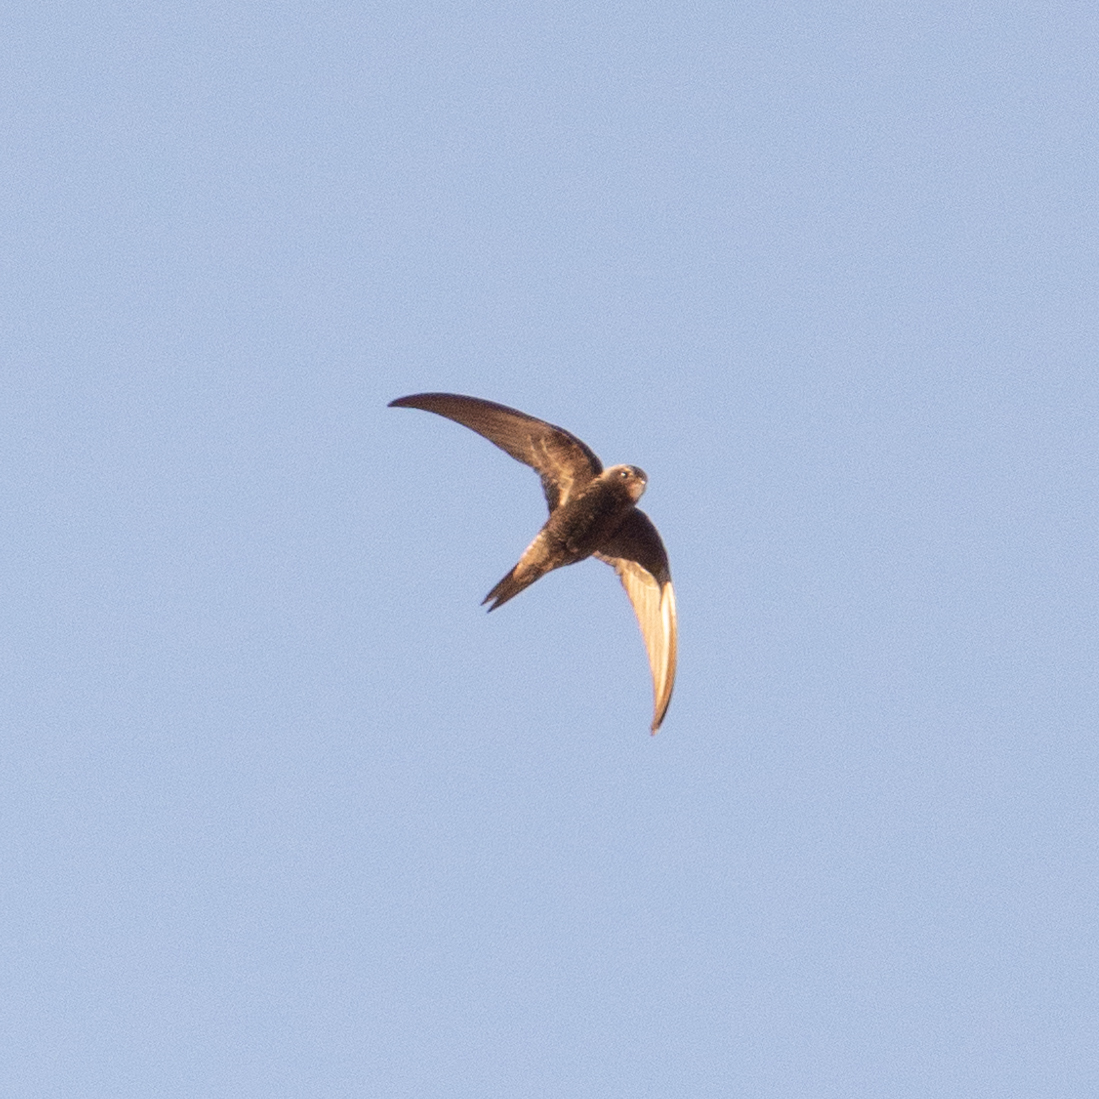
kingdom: Animalia
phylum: Chordata
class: Aves
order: Apodiformes
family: Apodidae
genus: Apus
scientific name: Apus apus
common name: Common swift
